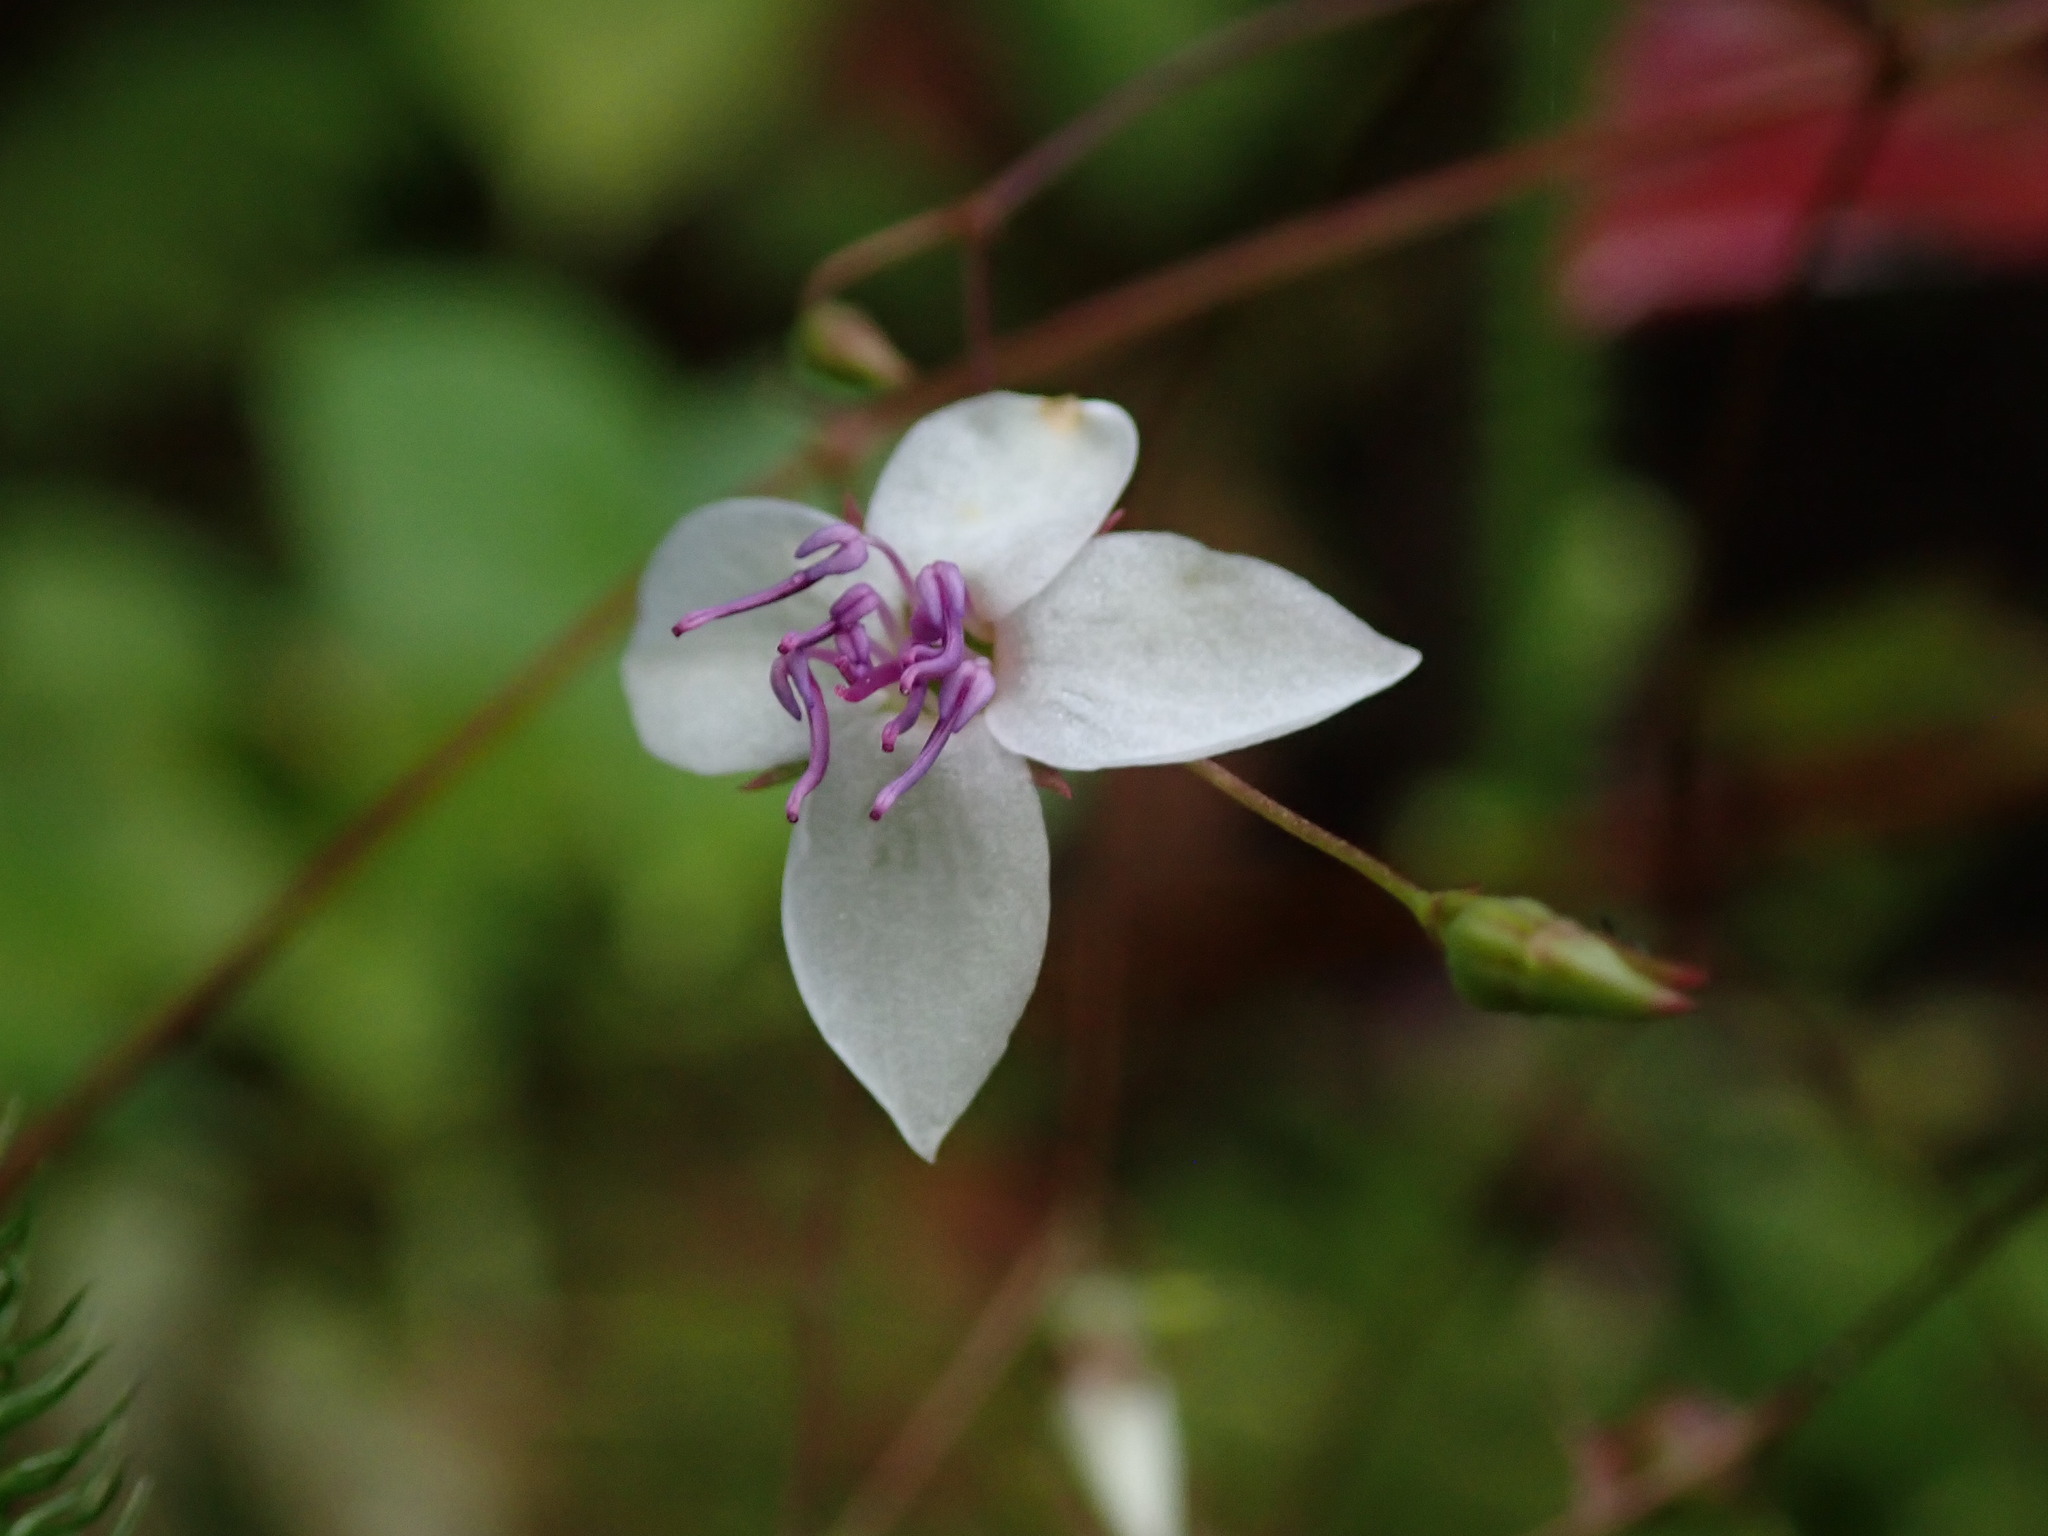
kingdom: Plantae
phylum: Tracheophyta
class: Magnoliopsida
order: Myrtales
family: Melastomataceae
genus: Nepsera
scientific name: Nepsera aquatica
